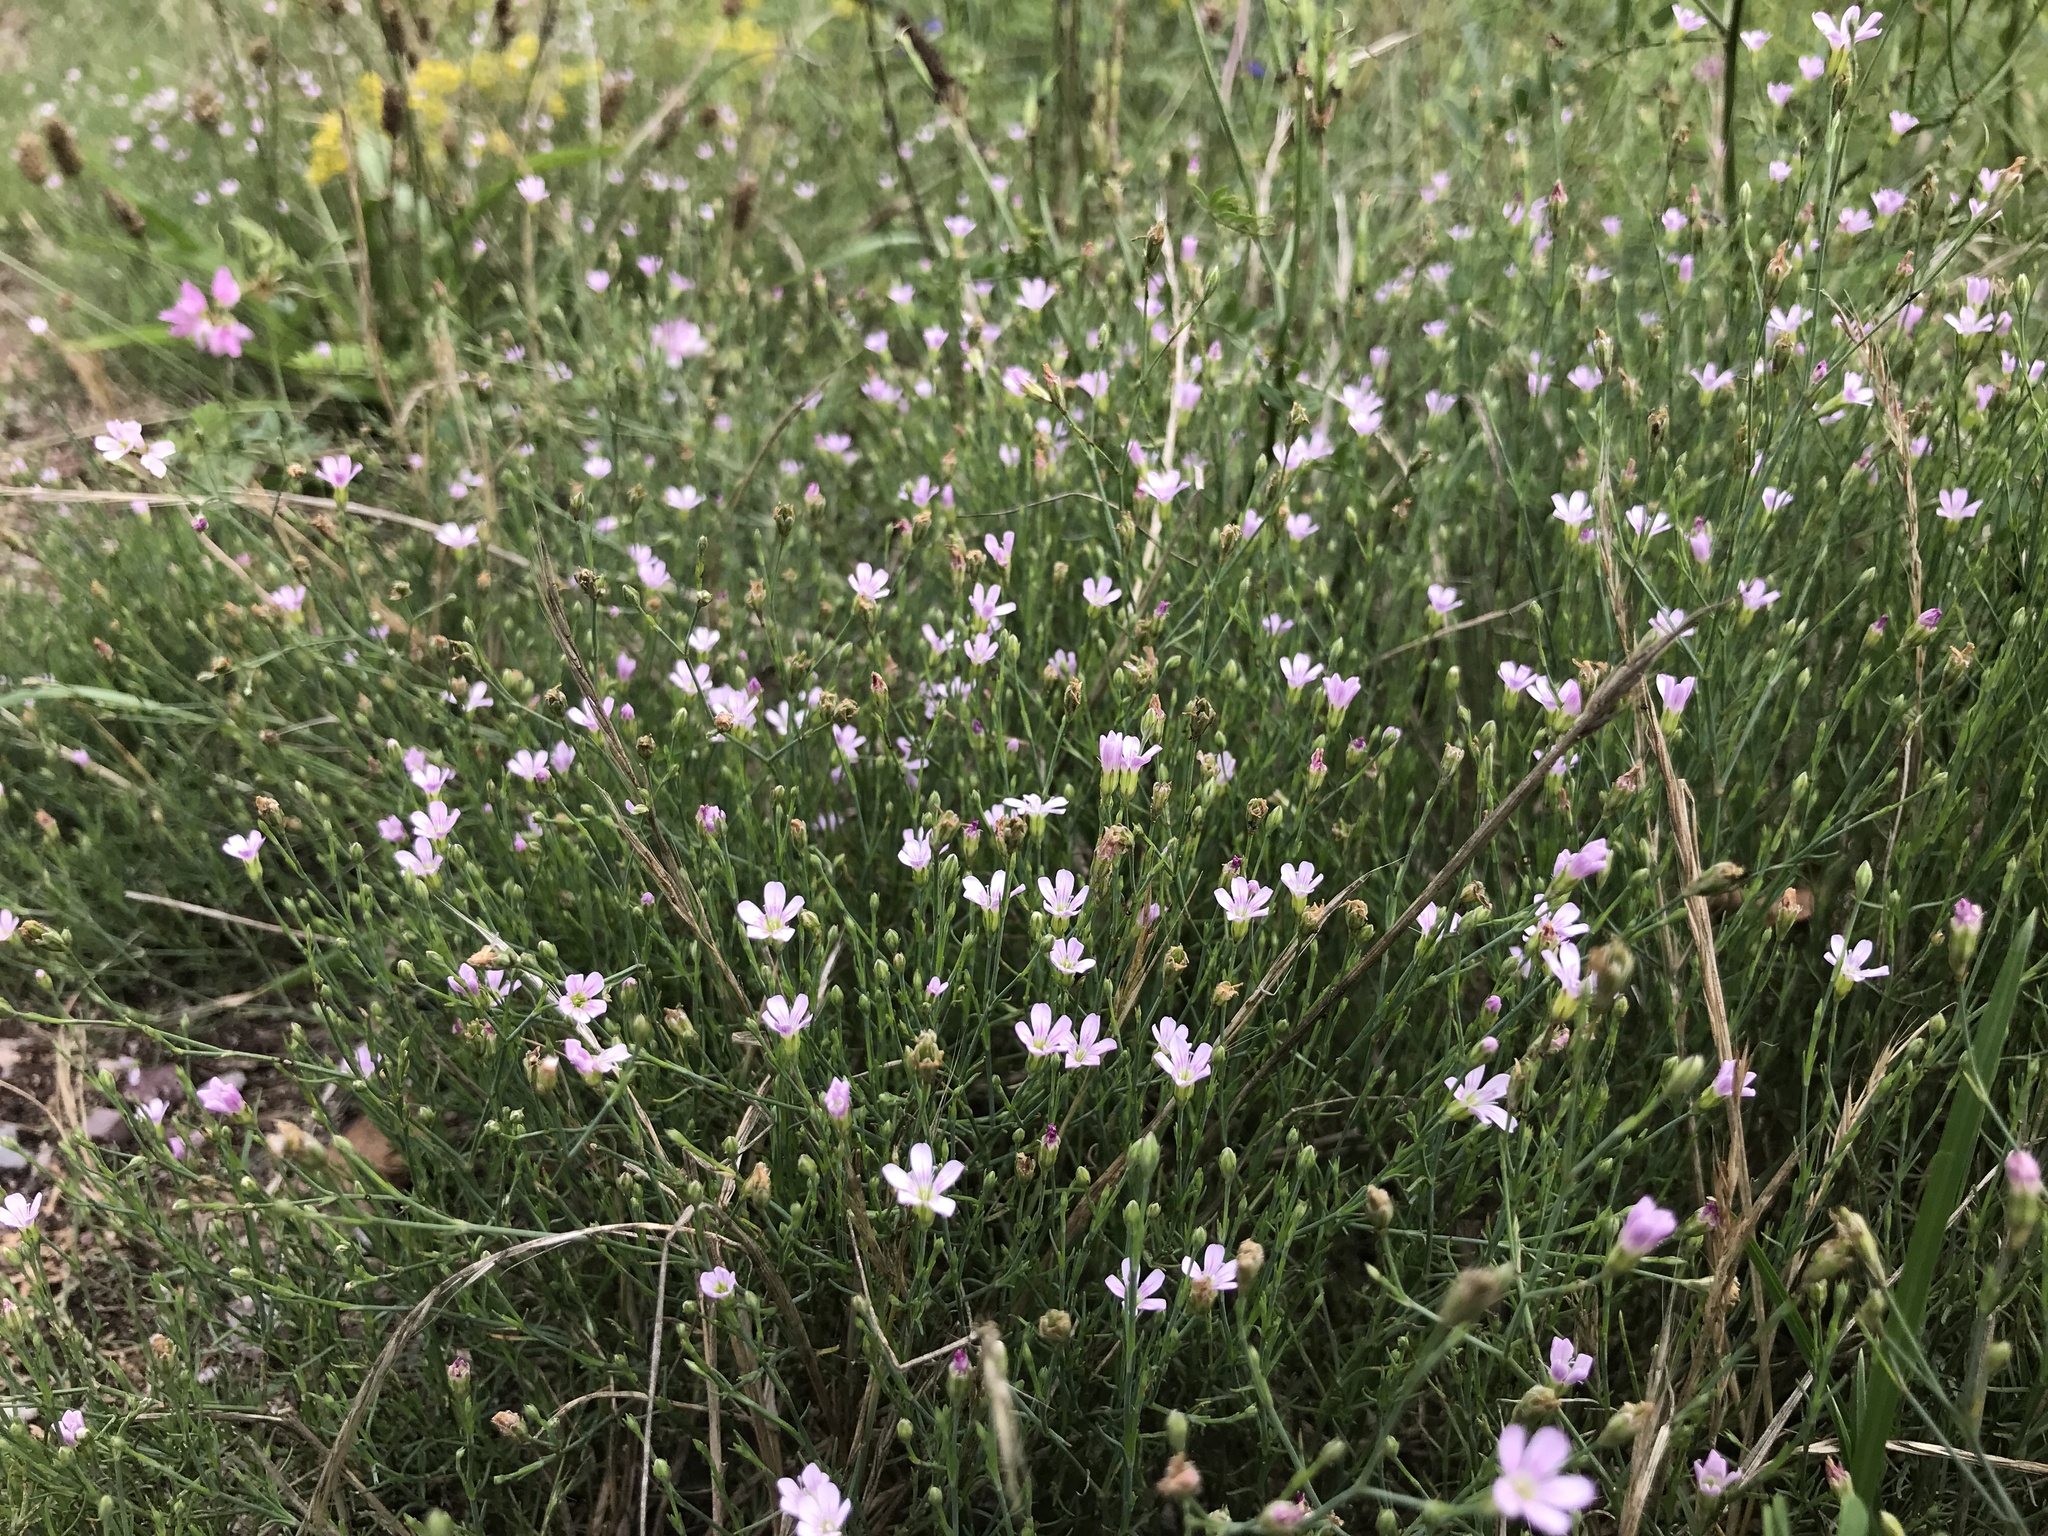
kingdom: Plantae
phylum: Tracheophyta
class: Magnoliopsida
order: Caryophyllales
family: Caryophyllaceae
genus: Petrorhagia
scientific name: Petrorhagia saxifraga
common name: Tunicflower
